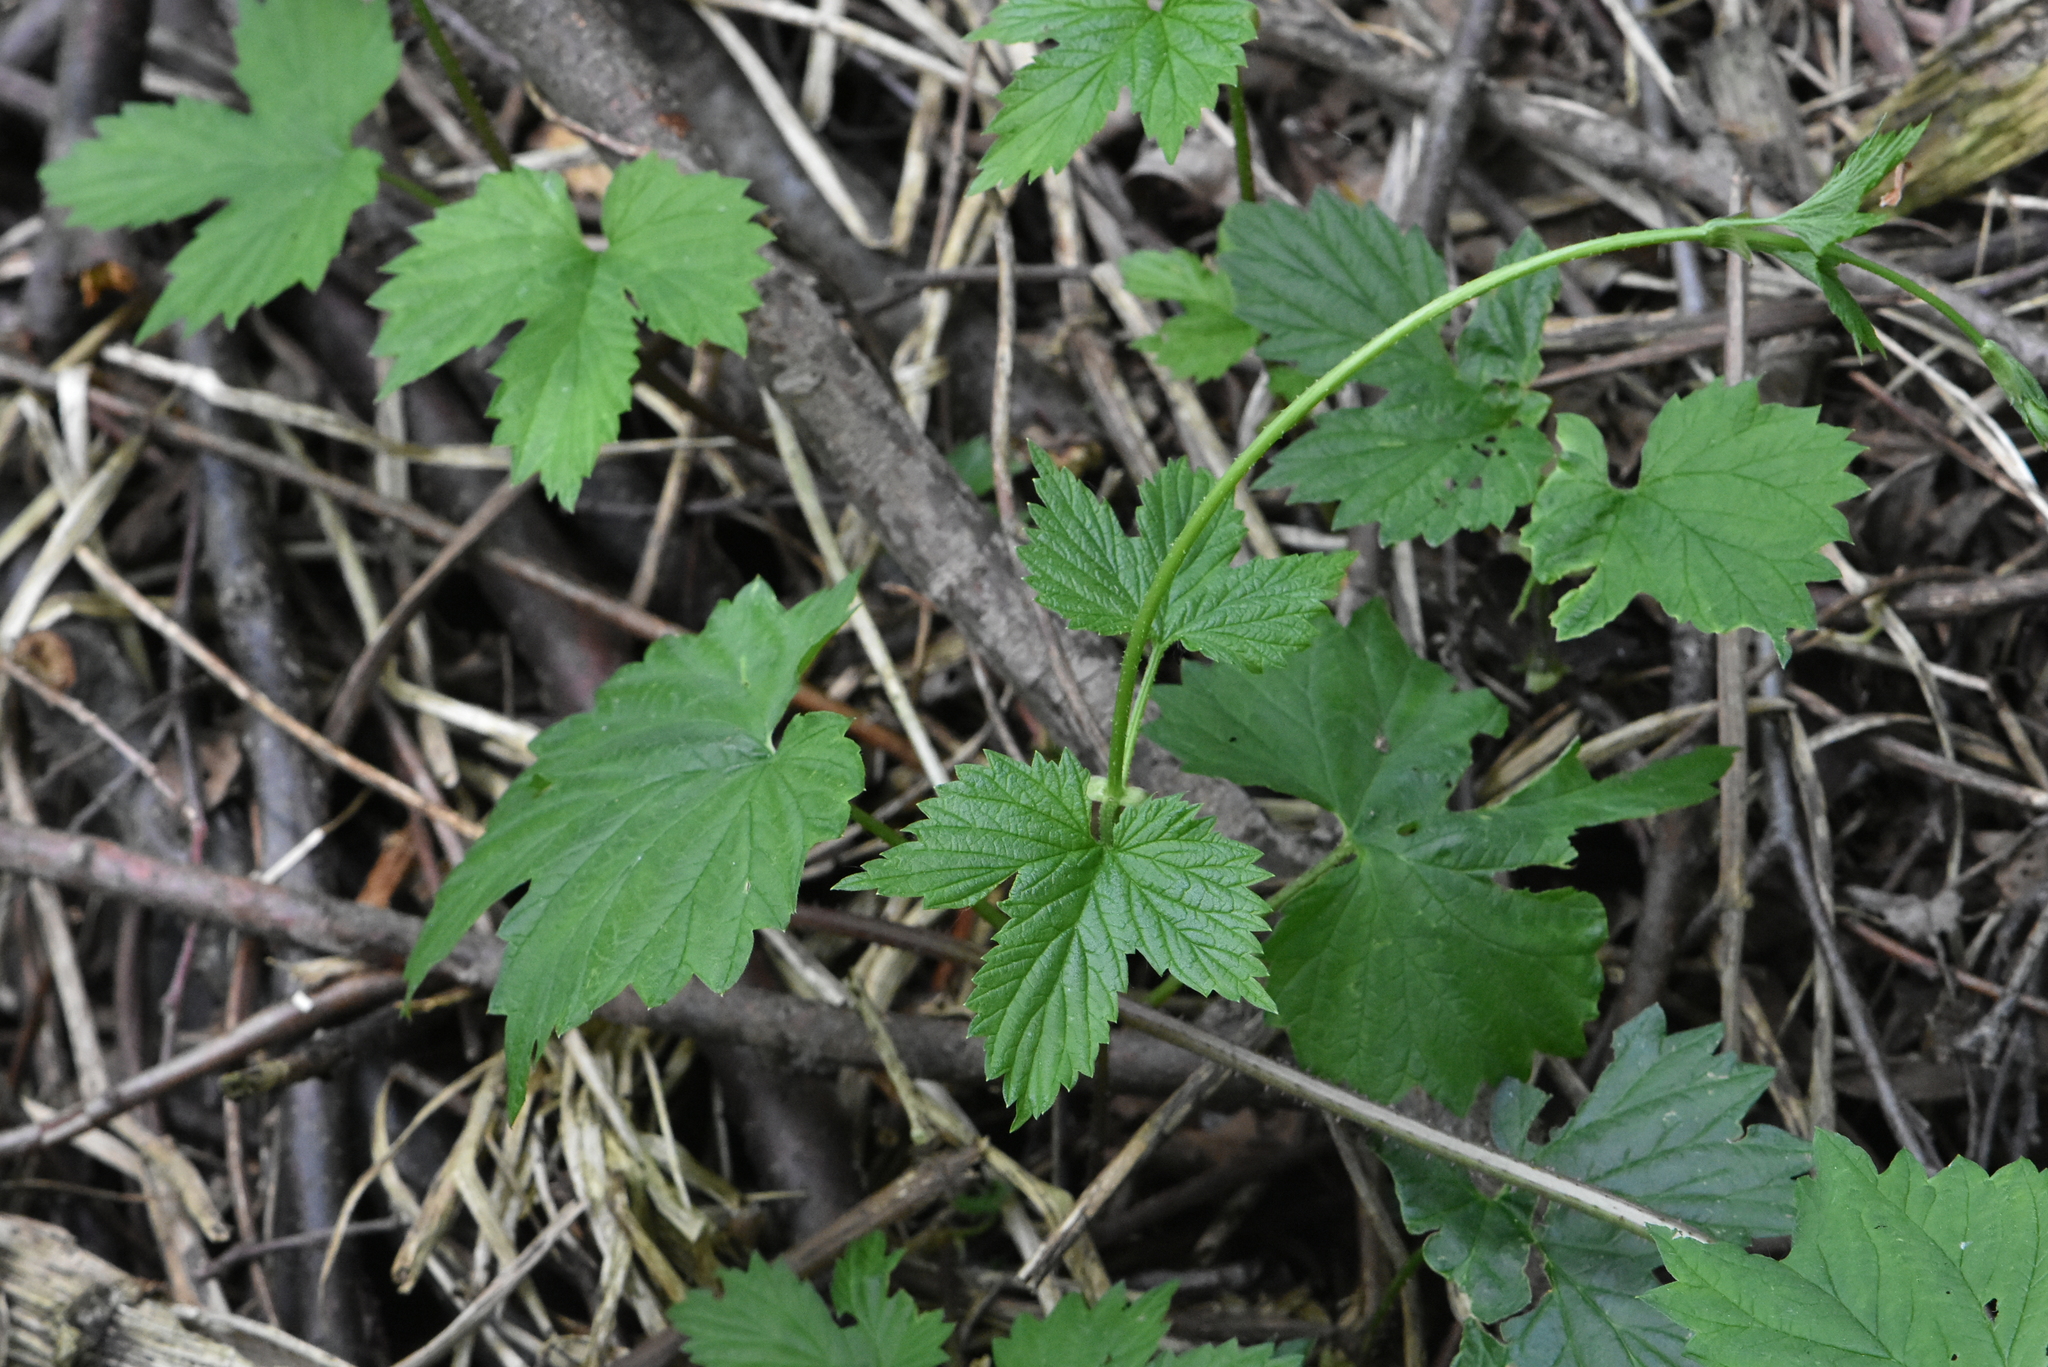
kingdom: Plantae
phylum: Tracheophyta
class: Magnoliopsida
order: Rosales
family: Cannabaceae
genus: Humulus
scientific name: Humulus lupulus
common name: Hop
